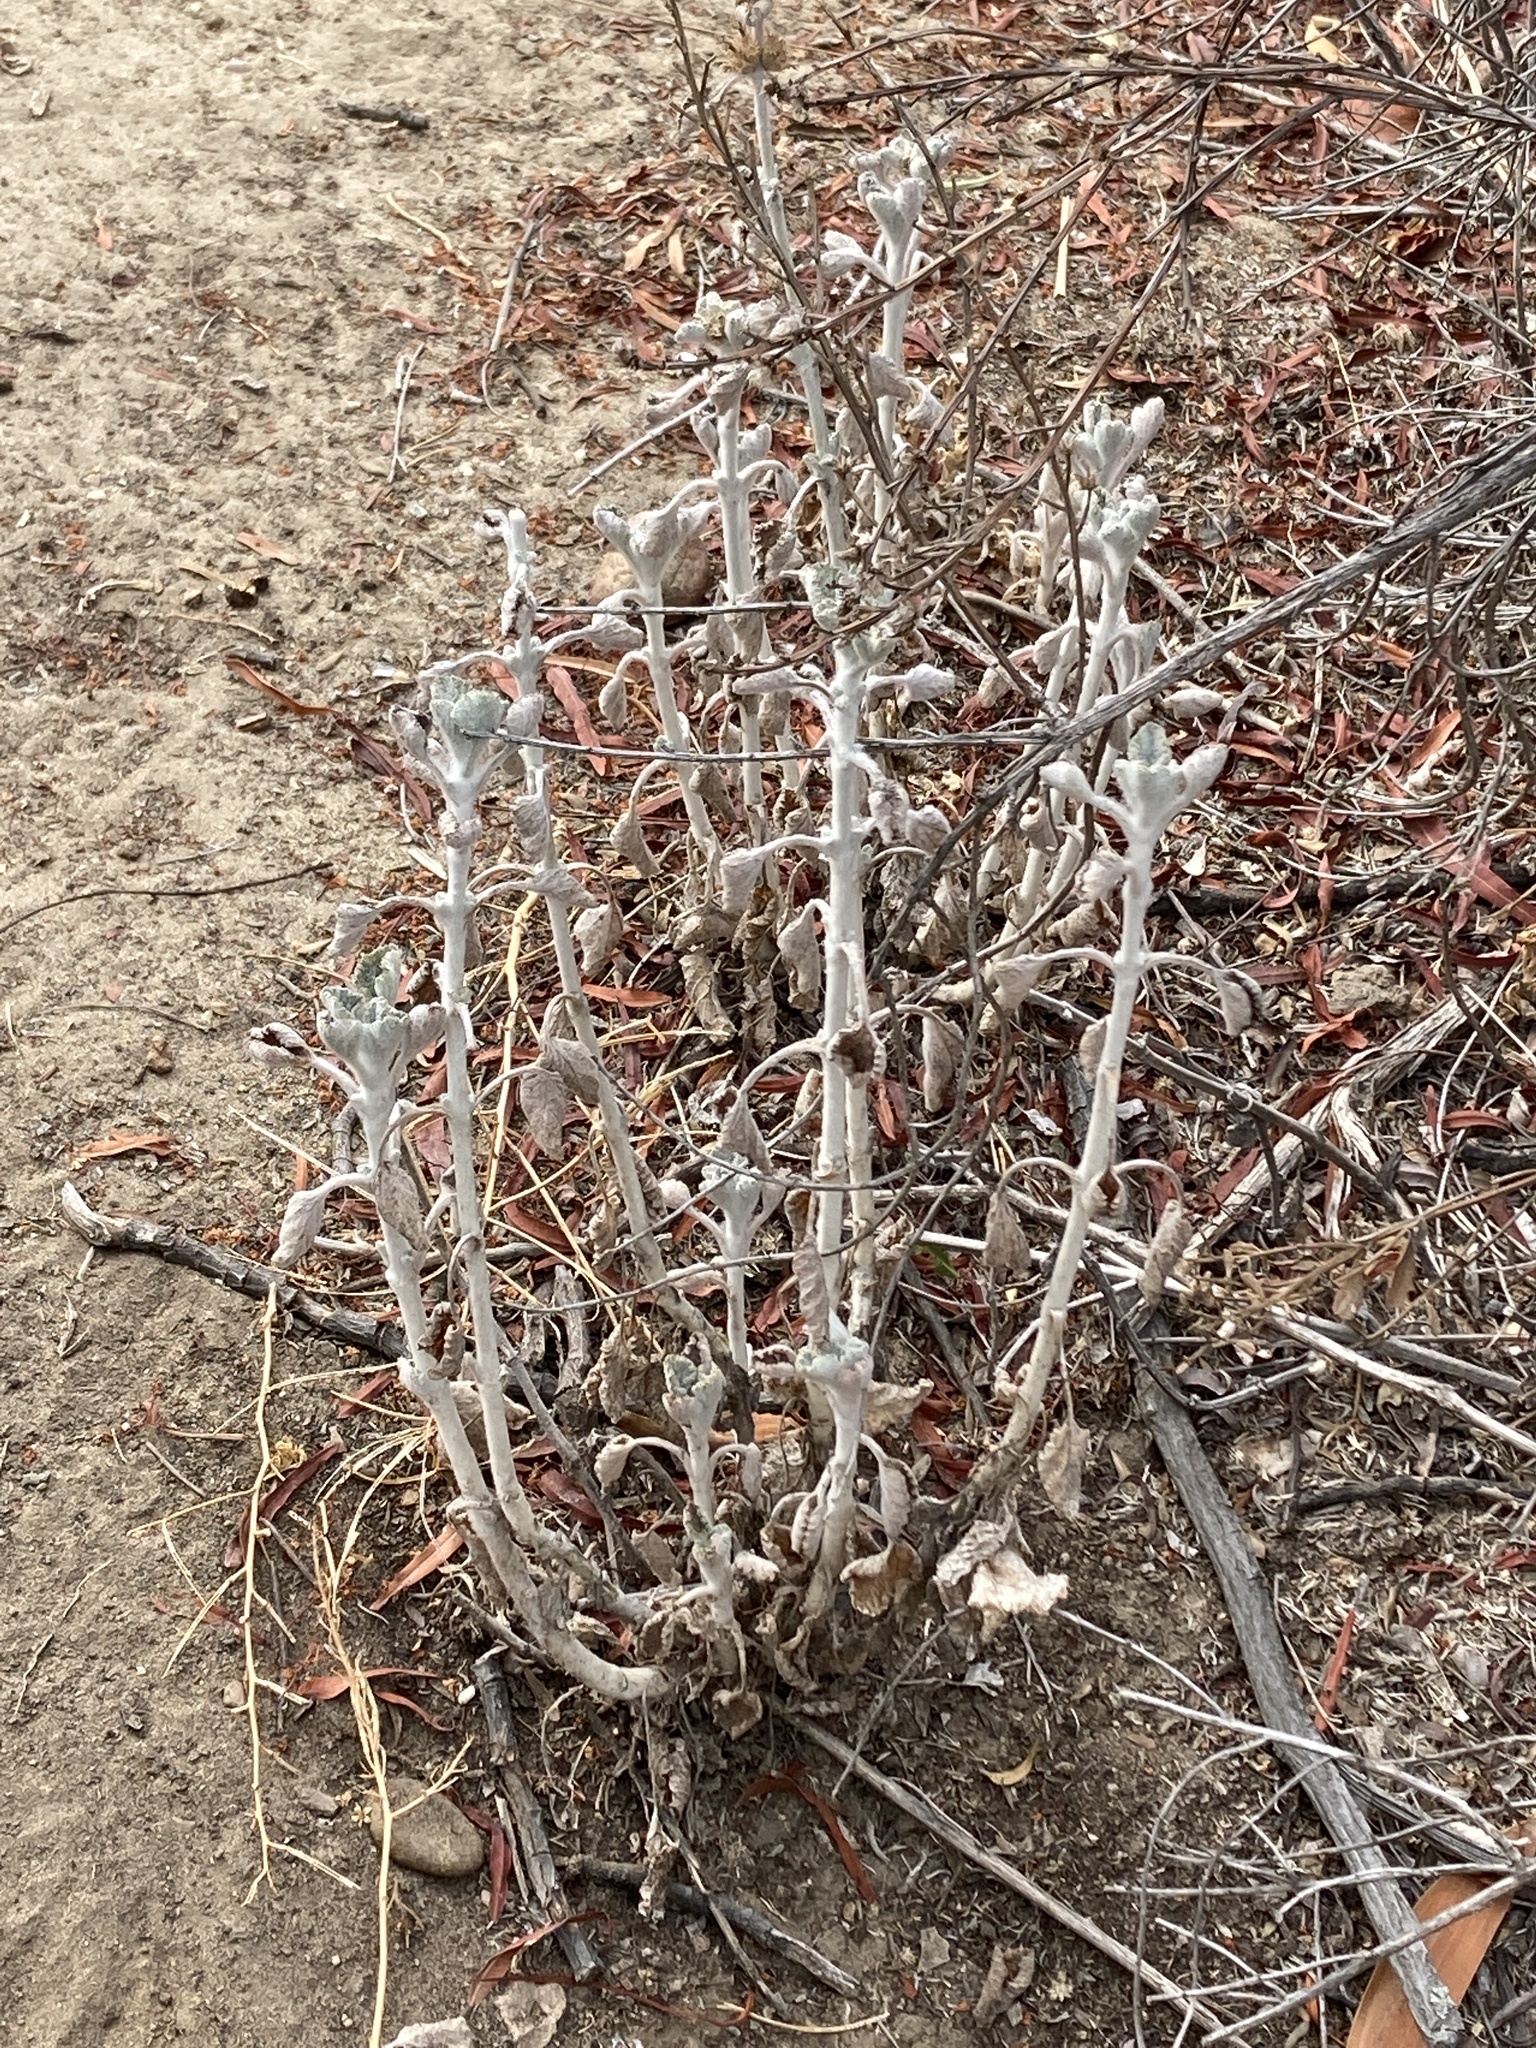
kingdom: Plantae
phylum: Tracheophyta
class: Magnoliopsida
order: Lamiales
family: Lamiaceae
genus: Marrubium
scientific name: Marrubium vulgare
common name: Horehound
